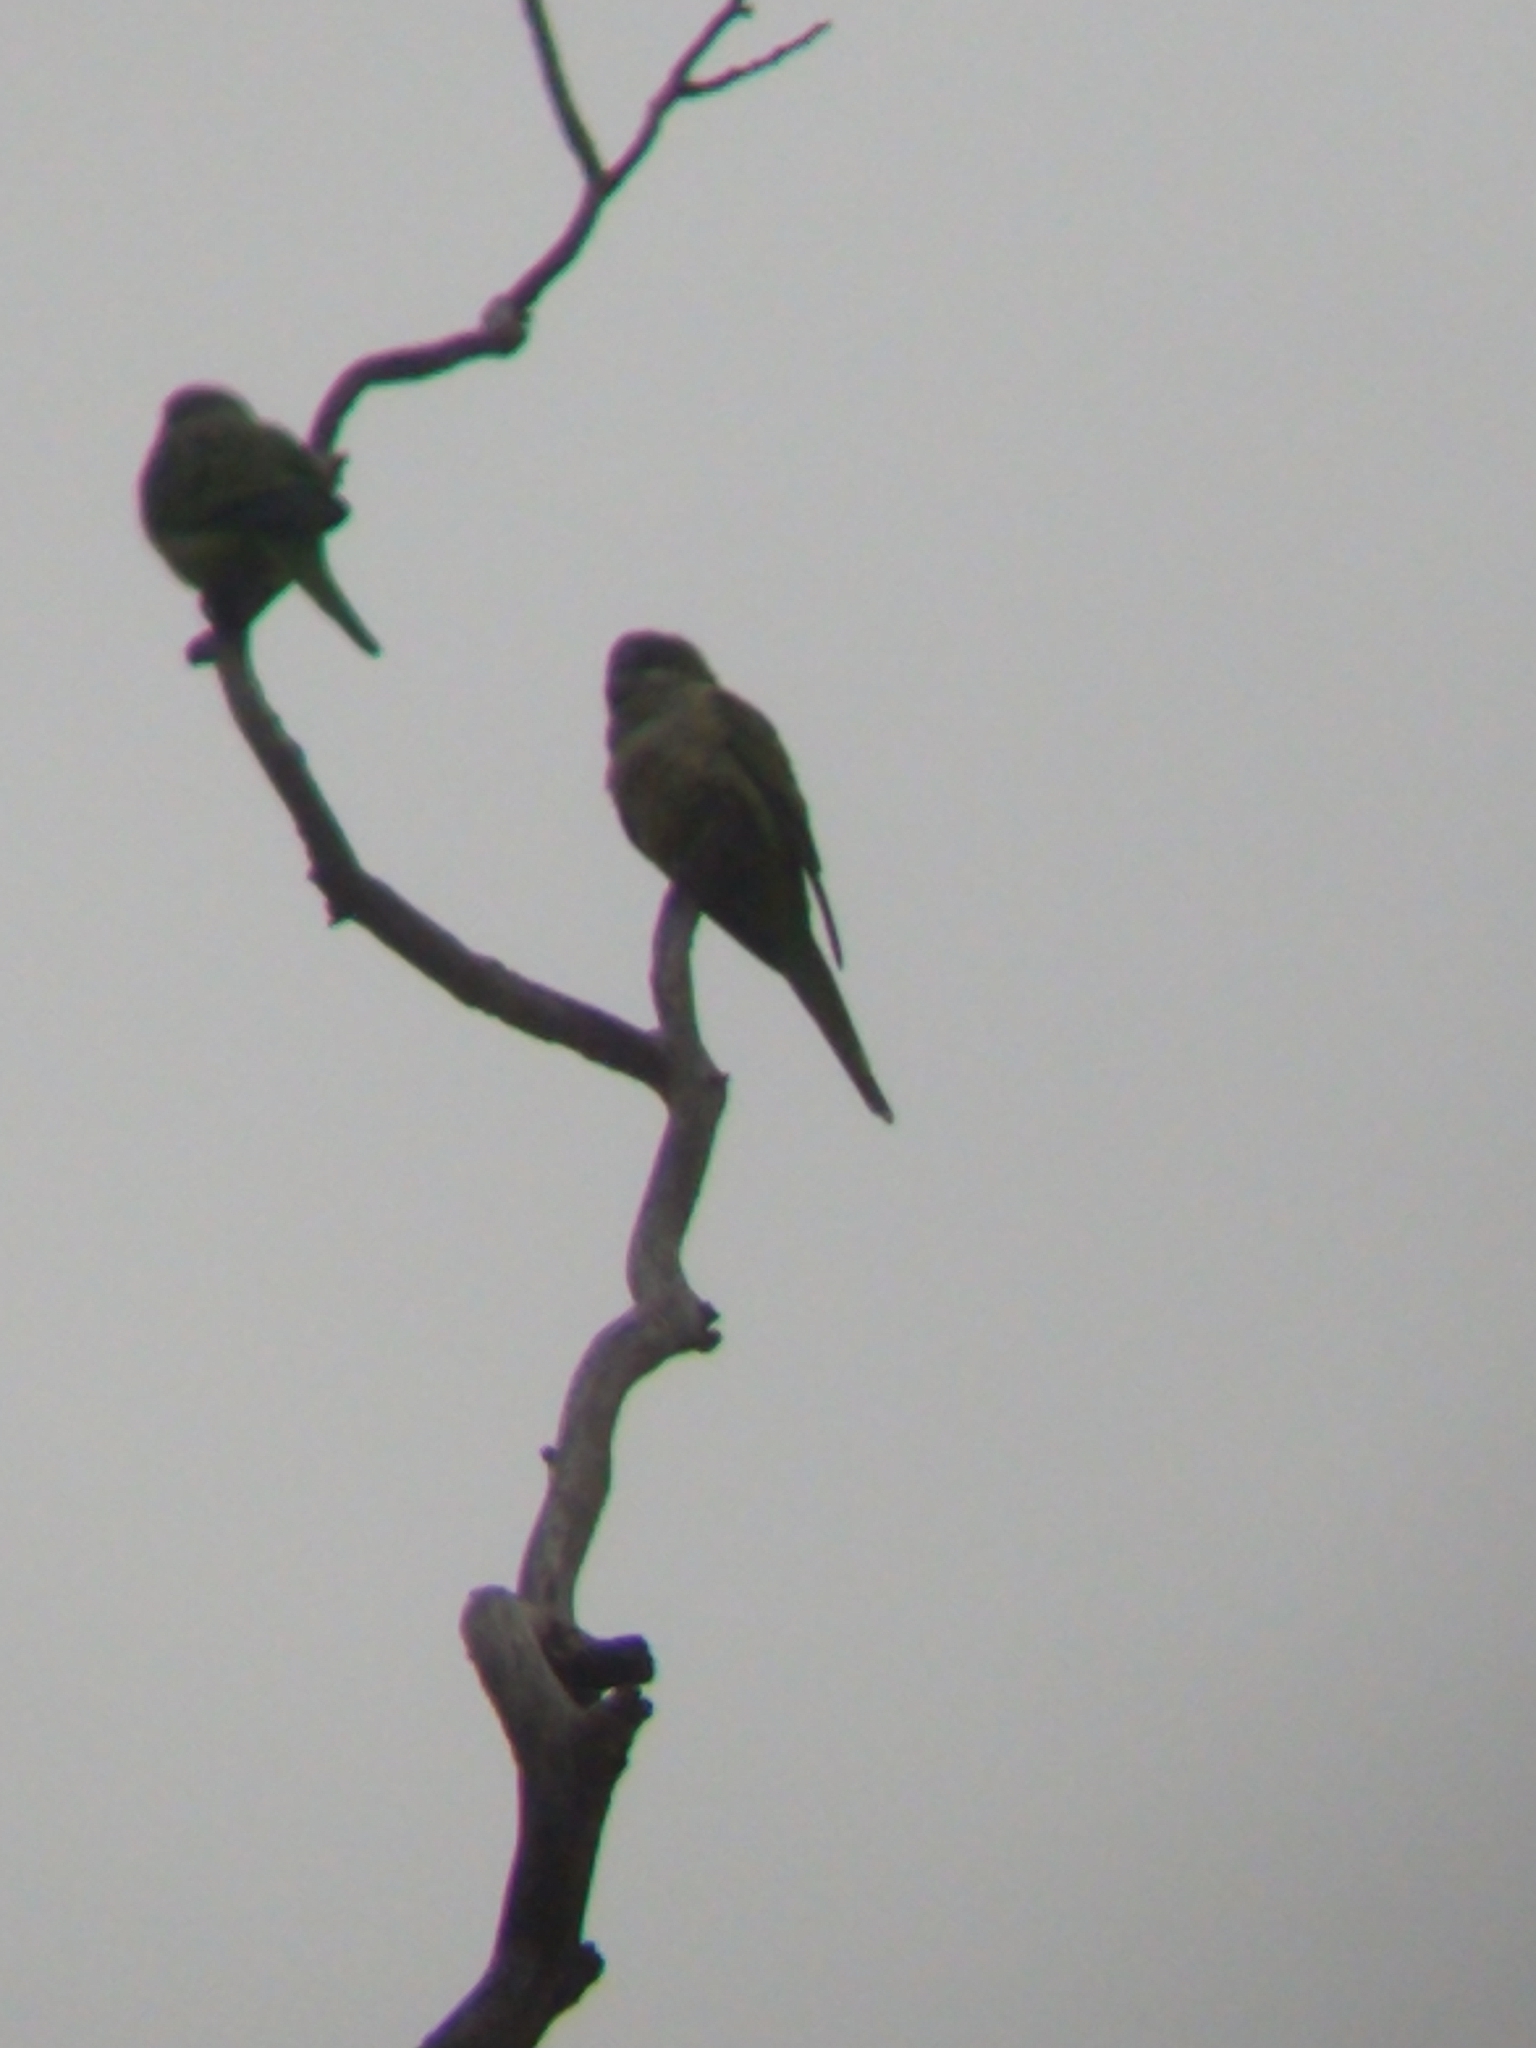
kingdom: Animalia
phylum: Chordata
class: Aves
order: Psittaciformes
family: Psittacidae
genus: Myiopsitta
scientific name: Myiopsitta monachus
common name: Monk parakeet
